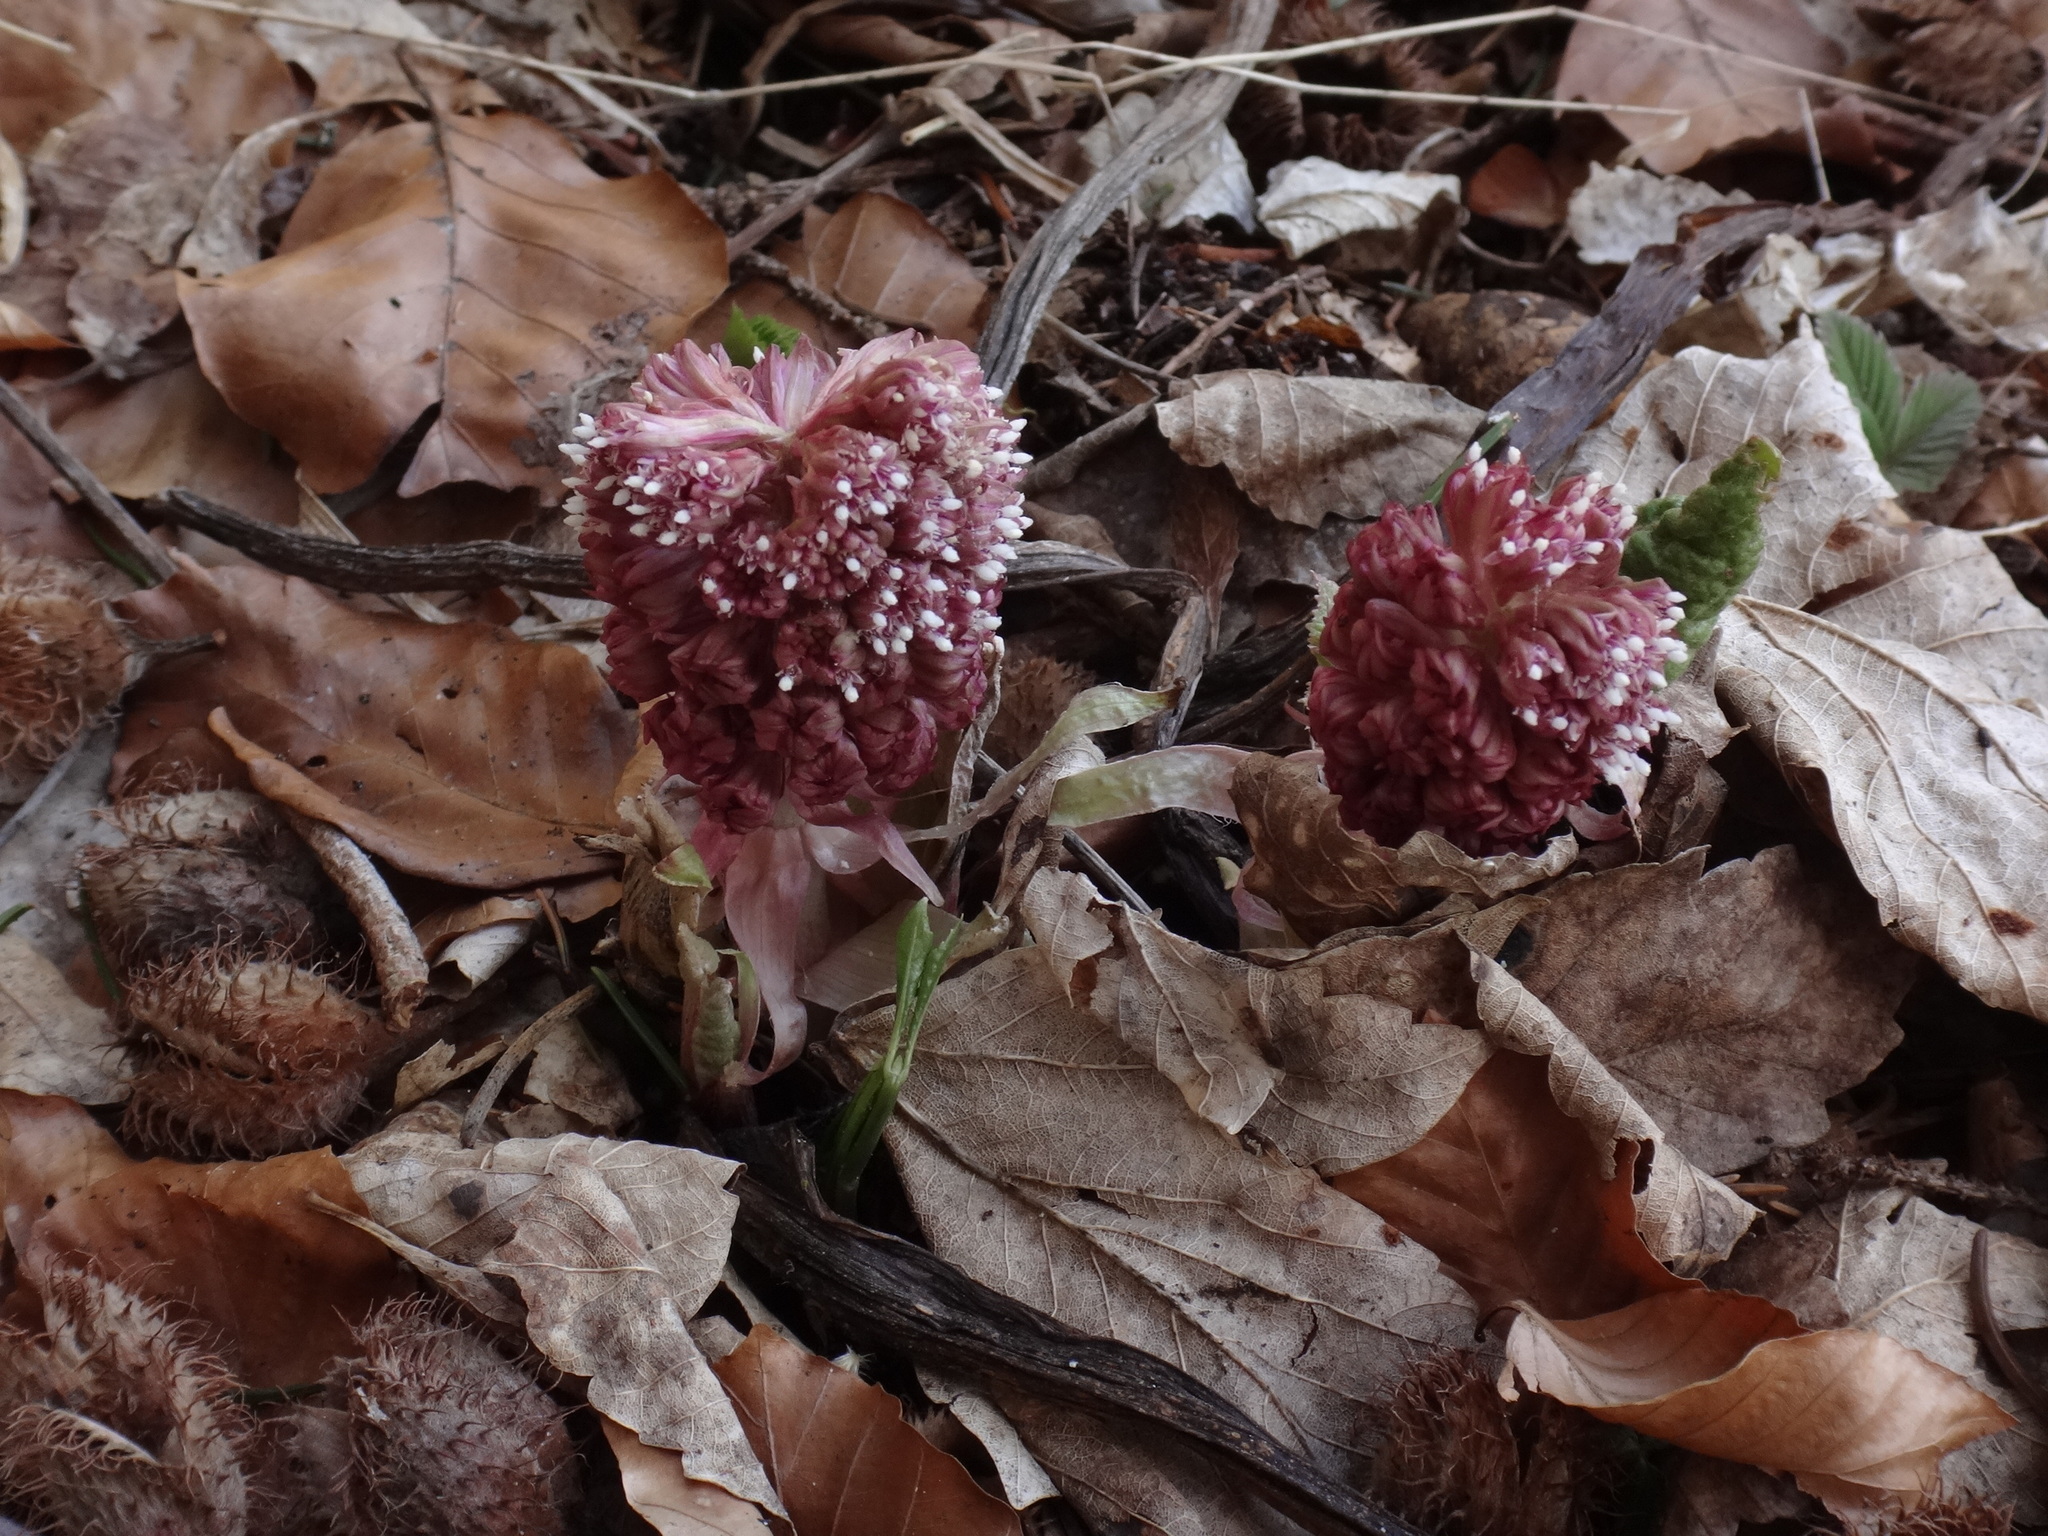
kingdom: Plantae
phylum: Tracheophyta
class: Magnoliopsida
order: Asterales
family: Asteraceae
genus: Petasites
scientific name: Petasites hybridus
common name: Butterbur
